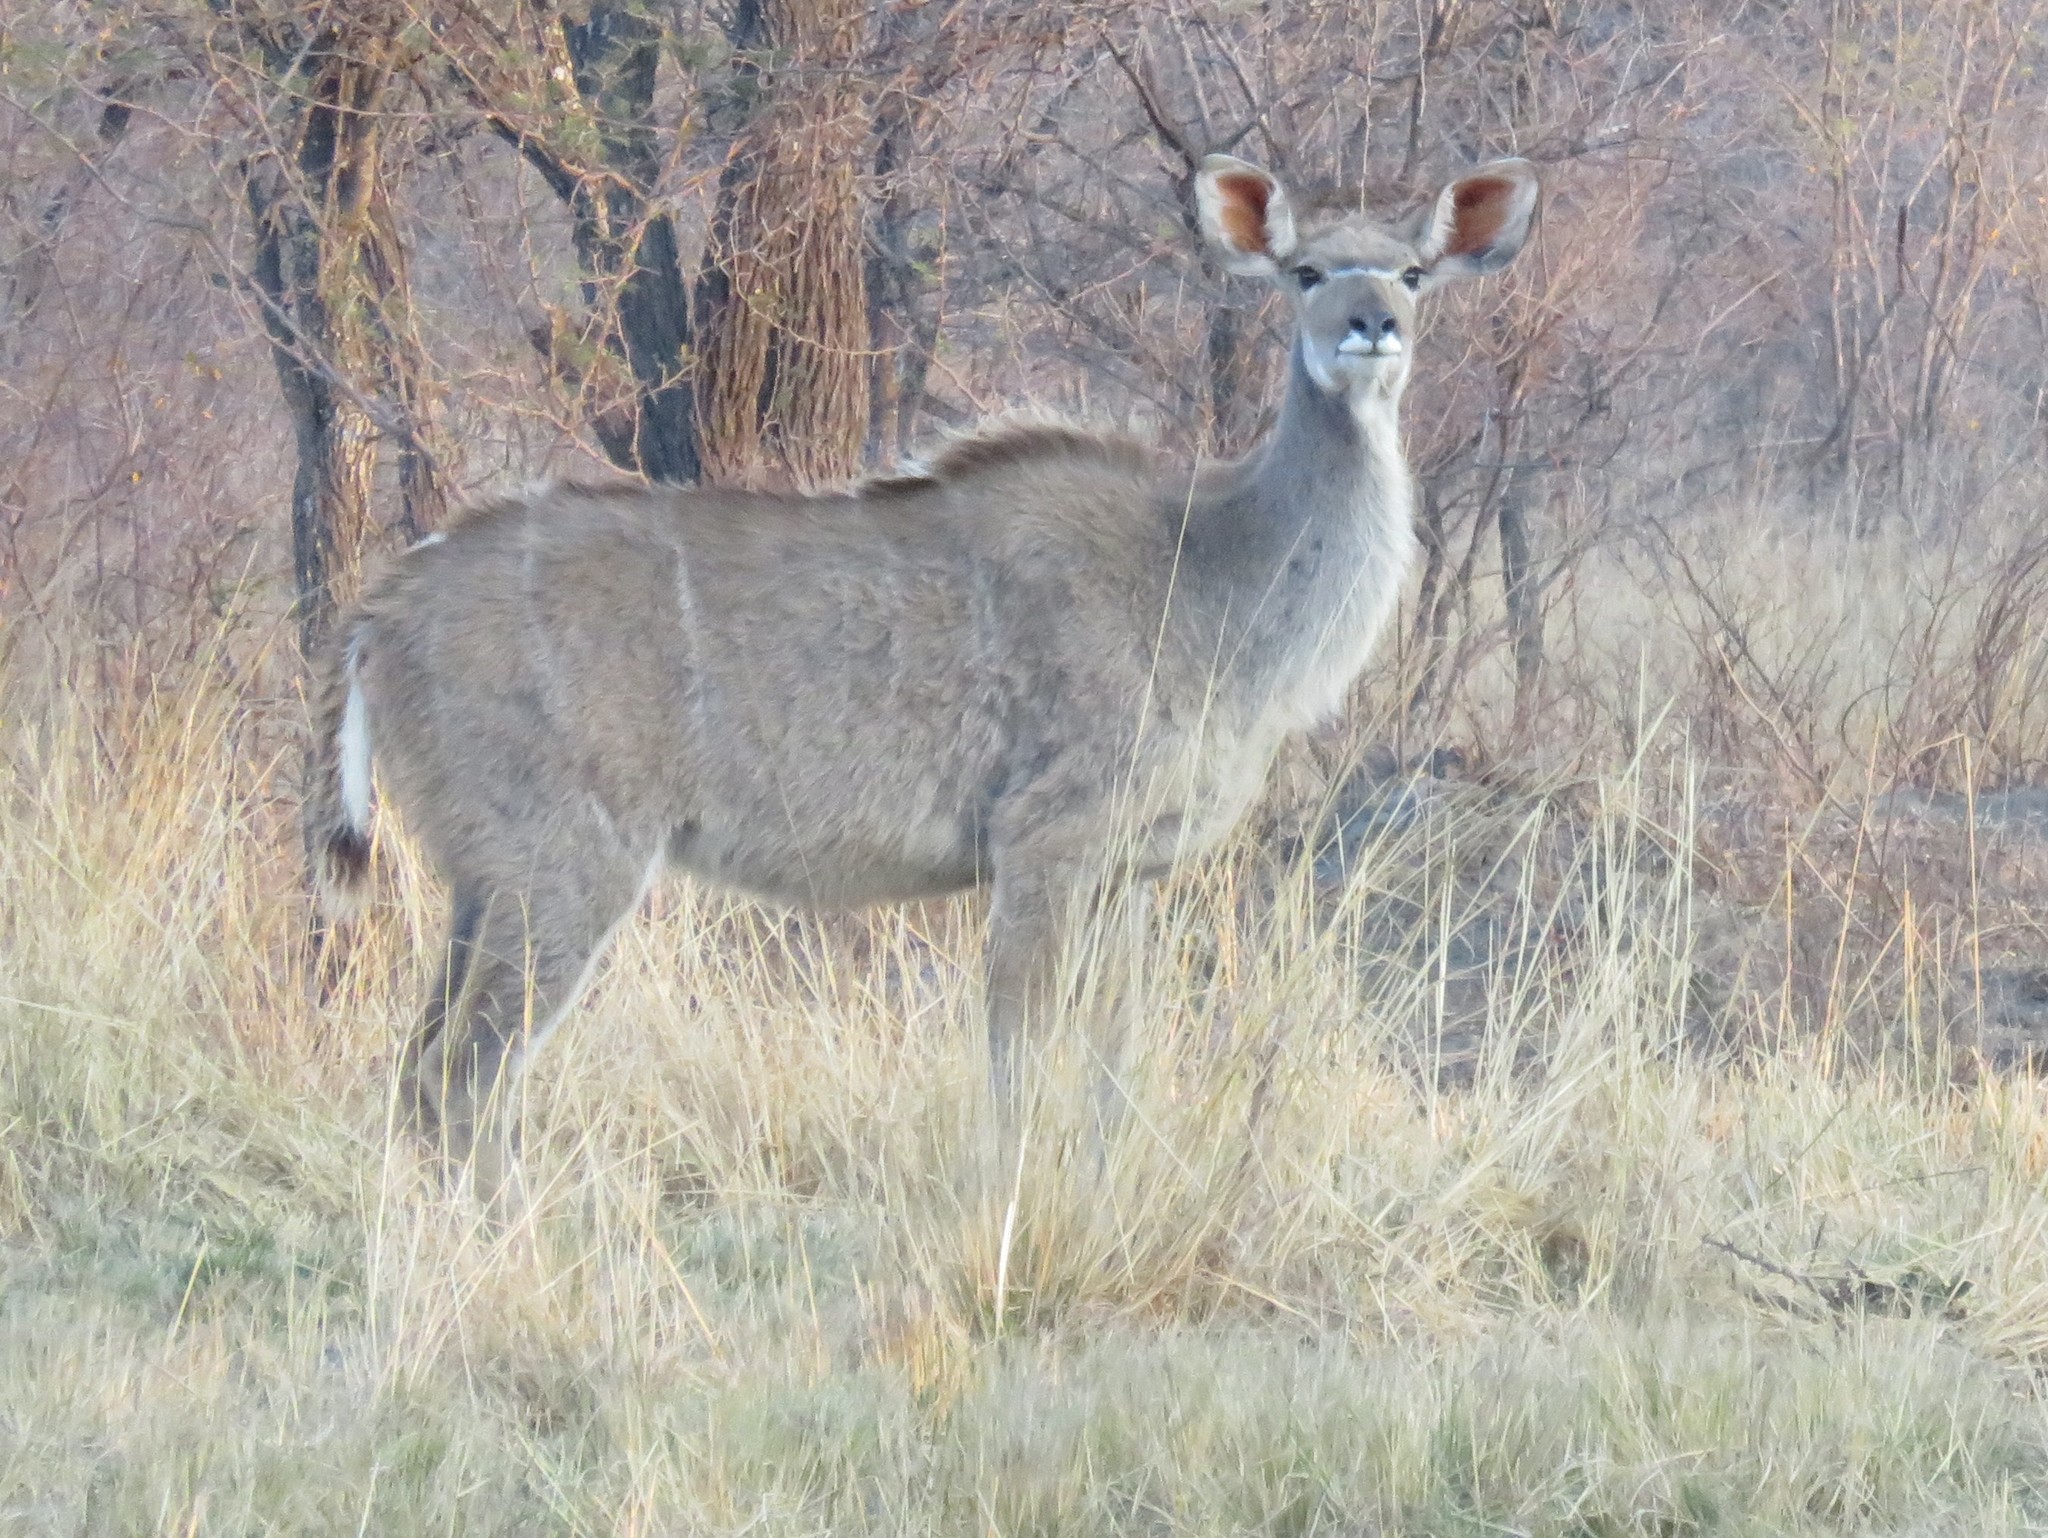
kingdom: Animalia
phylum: Chordata
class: Mammalia
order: Artiodactyla
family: Bovidae
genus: Tragelaphus
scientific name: Tragelaphus strepsiceros
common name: Greater kudu
